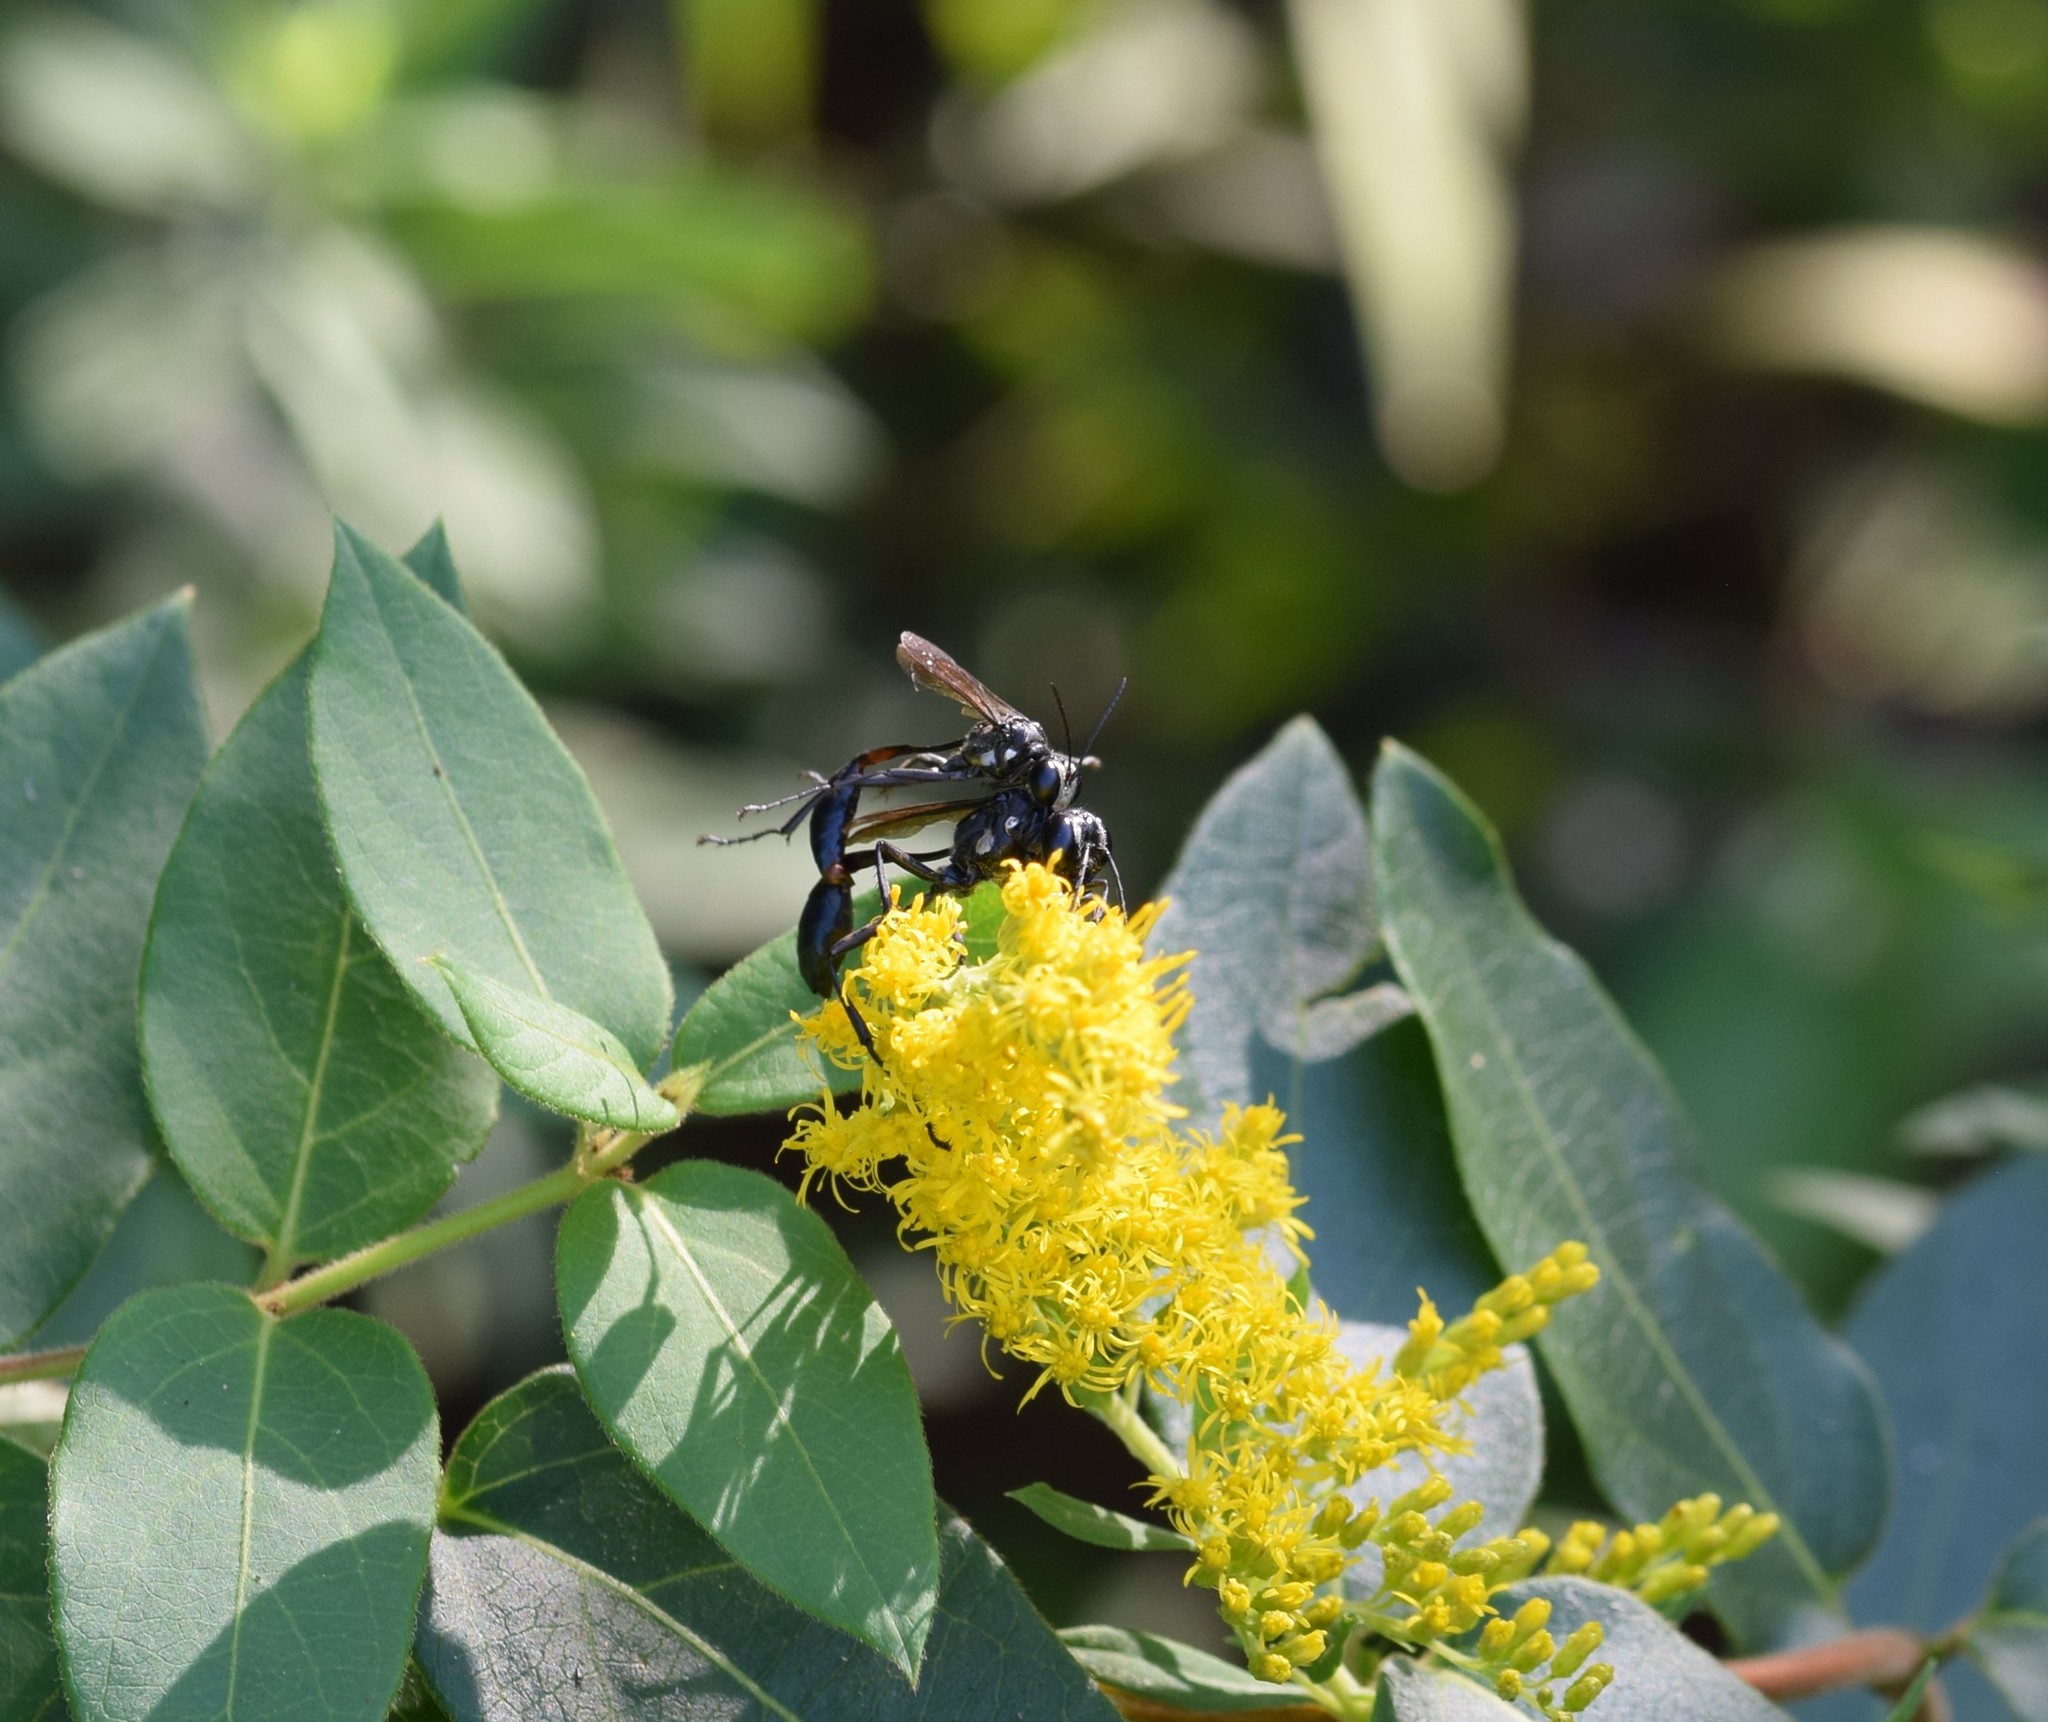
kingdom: Animalia
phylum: Arthropoda
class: Insecta
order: Hymenoptera
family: Sphecidae
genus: Eremnophila
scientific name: Eremnophila aureonotata
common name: Gold-marked thread-waisted wasp
